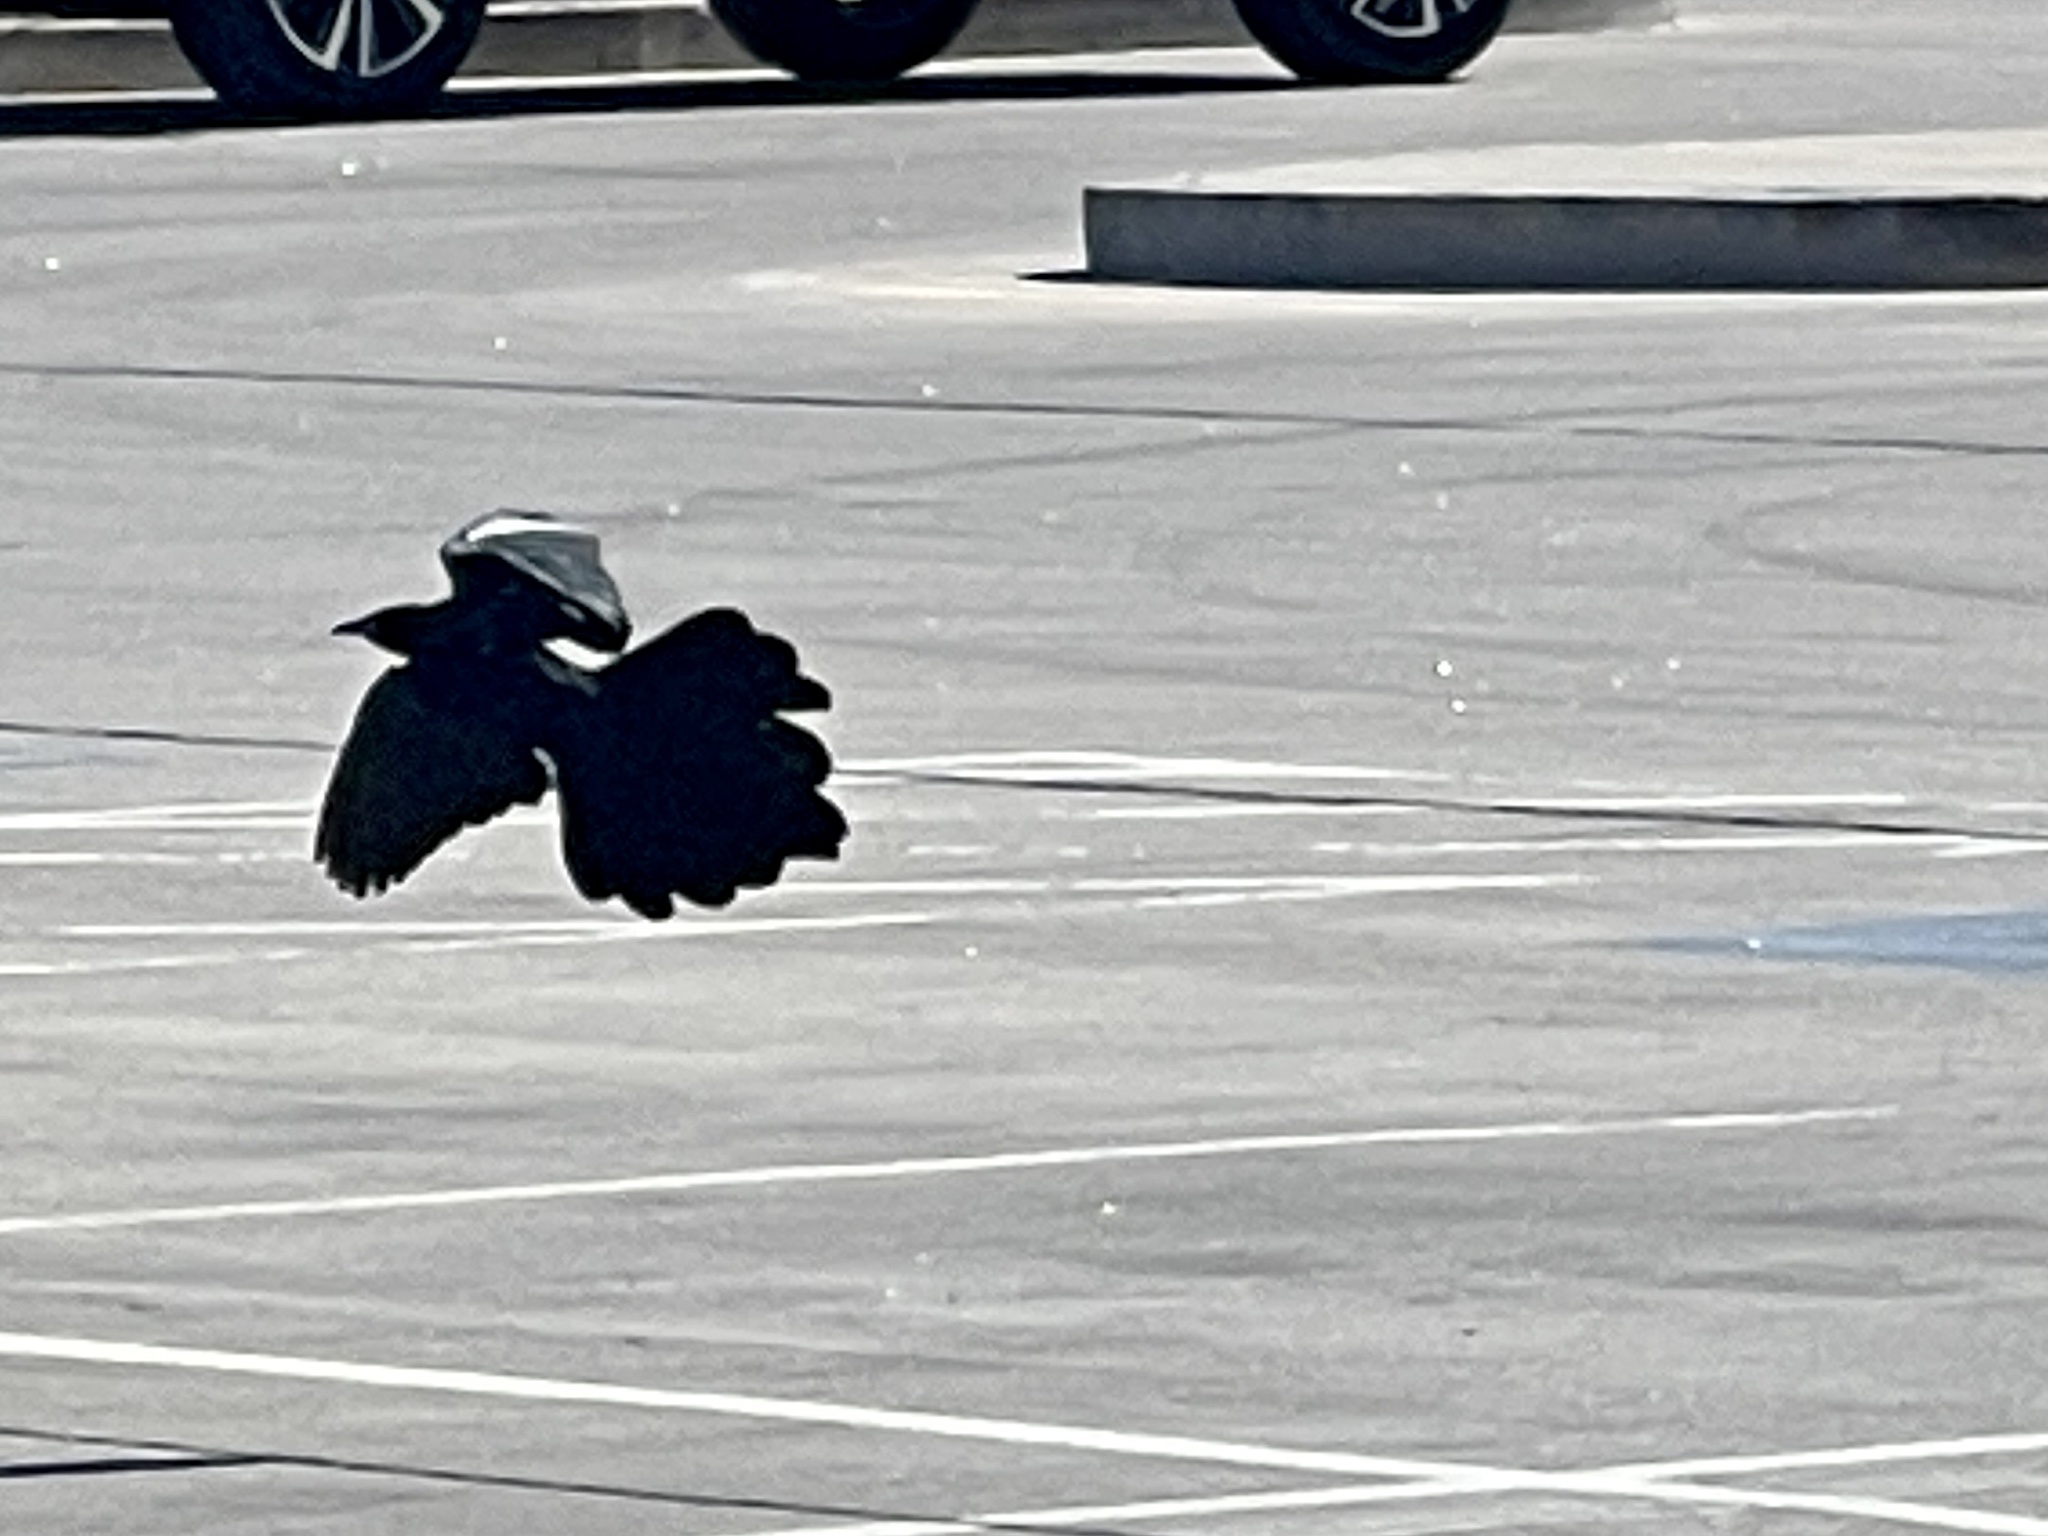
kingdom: Animalia
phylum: Chordata
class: Aves
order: Passeriformes
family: Icteridae
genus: Quiscalus
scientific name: Quiscalus mexicanus
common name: Great-tailed grackle
